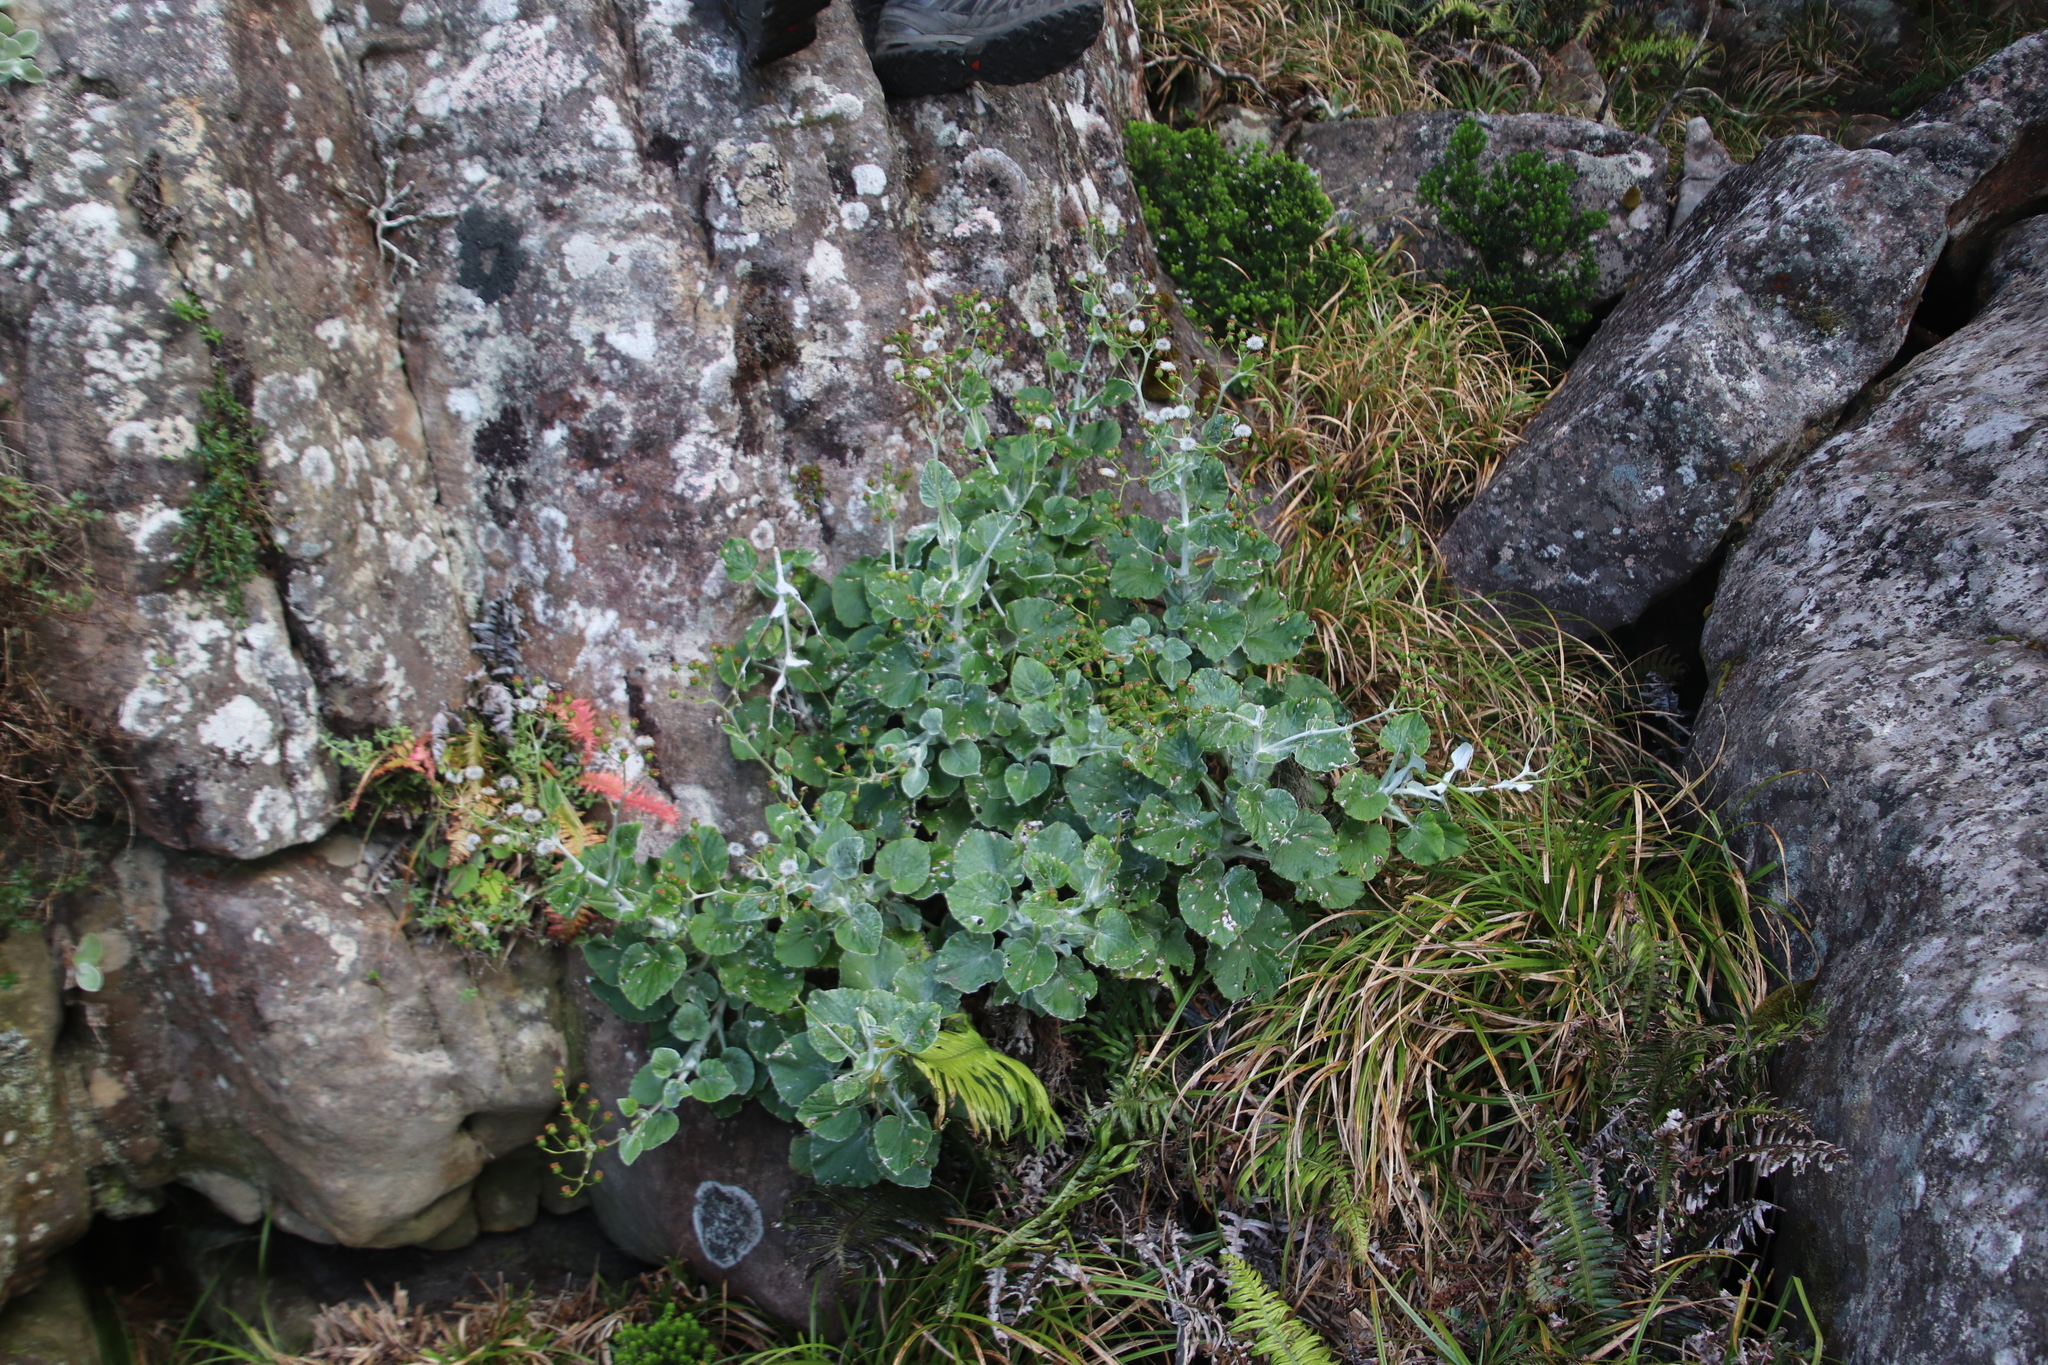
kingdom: Plantae
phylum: Tracheophyta
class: Magnoliopsida
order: Asterales
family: Asteraceae
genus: Senecio
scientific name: Senecio verbascifolius
